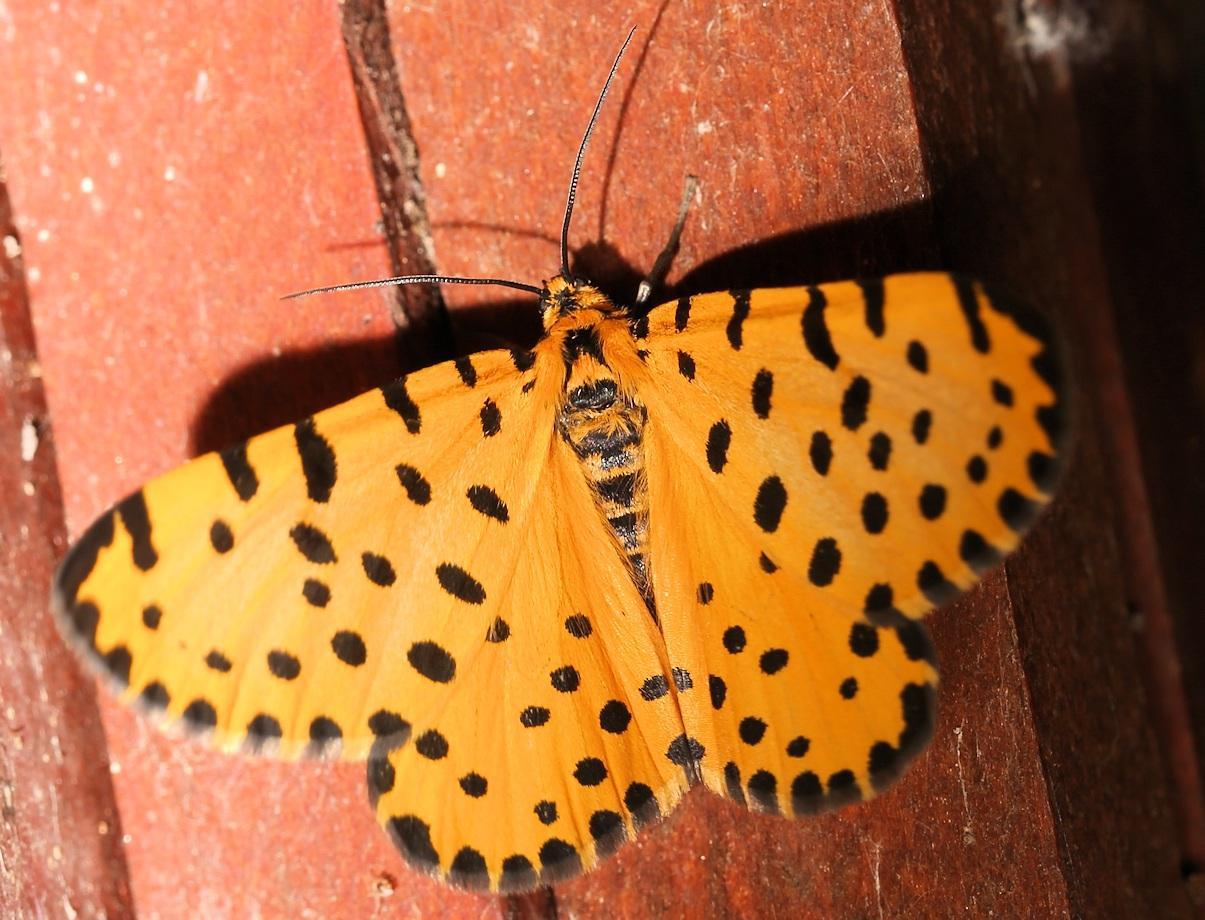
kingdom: Animalia
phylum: Arthropoda
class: Insecta
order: Lepidoptera
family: Geometridae
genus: Zerenopsis
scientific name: Zerenopsis lepida
